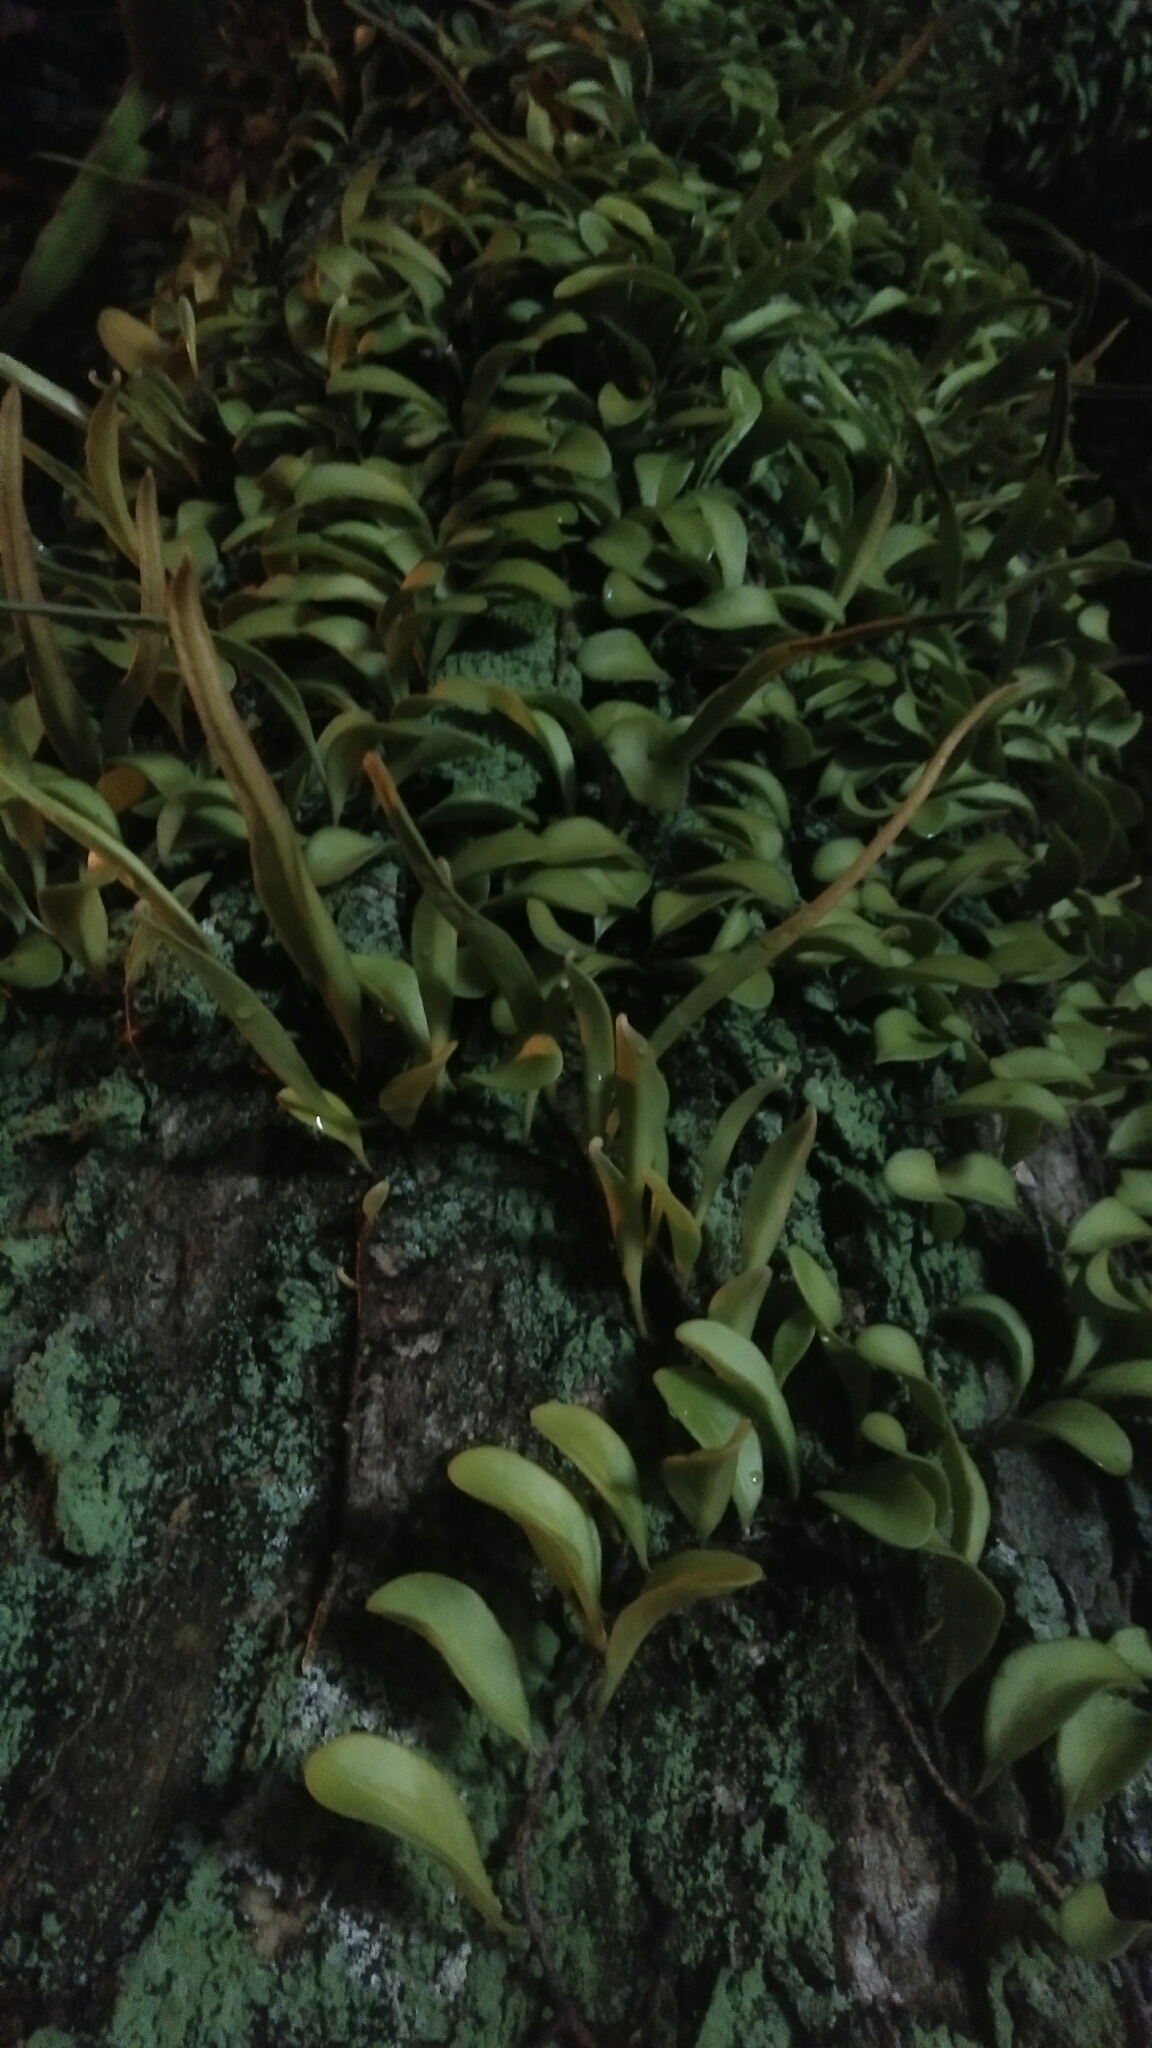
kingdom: Plantae
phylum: Tracheophyta
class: Polypodiopsida
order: Polypodiales
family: Polypodiaceae
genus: Pyrrosia
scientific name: Pyrrosia lanceolata
